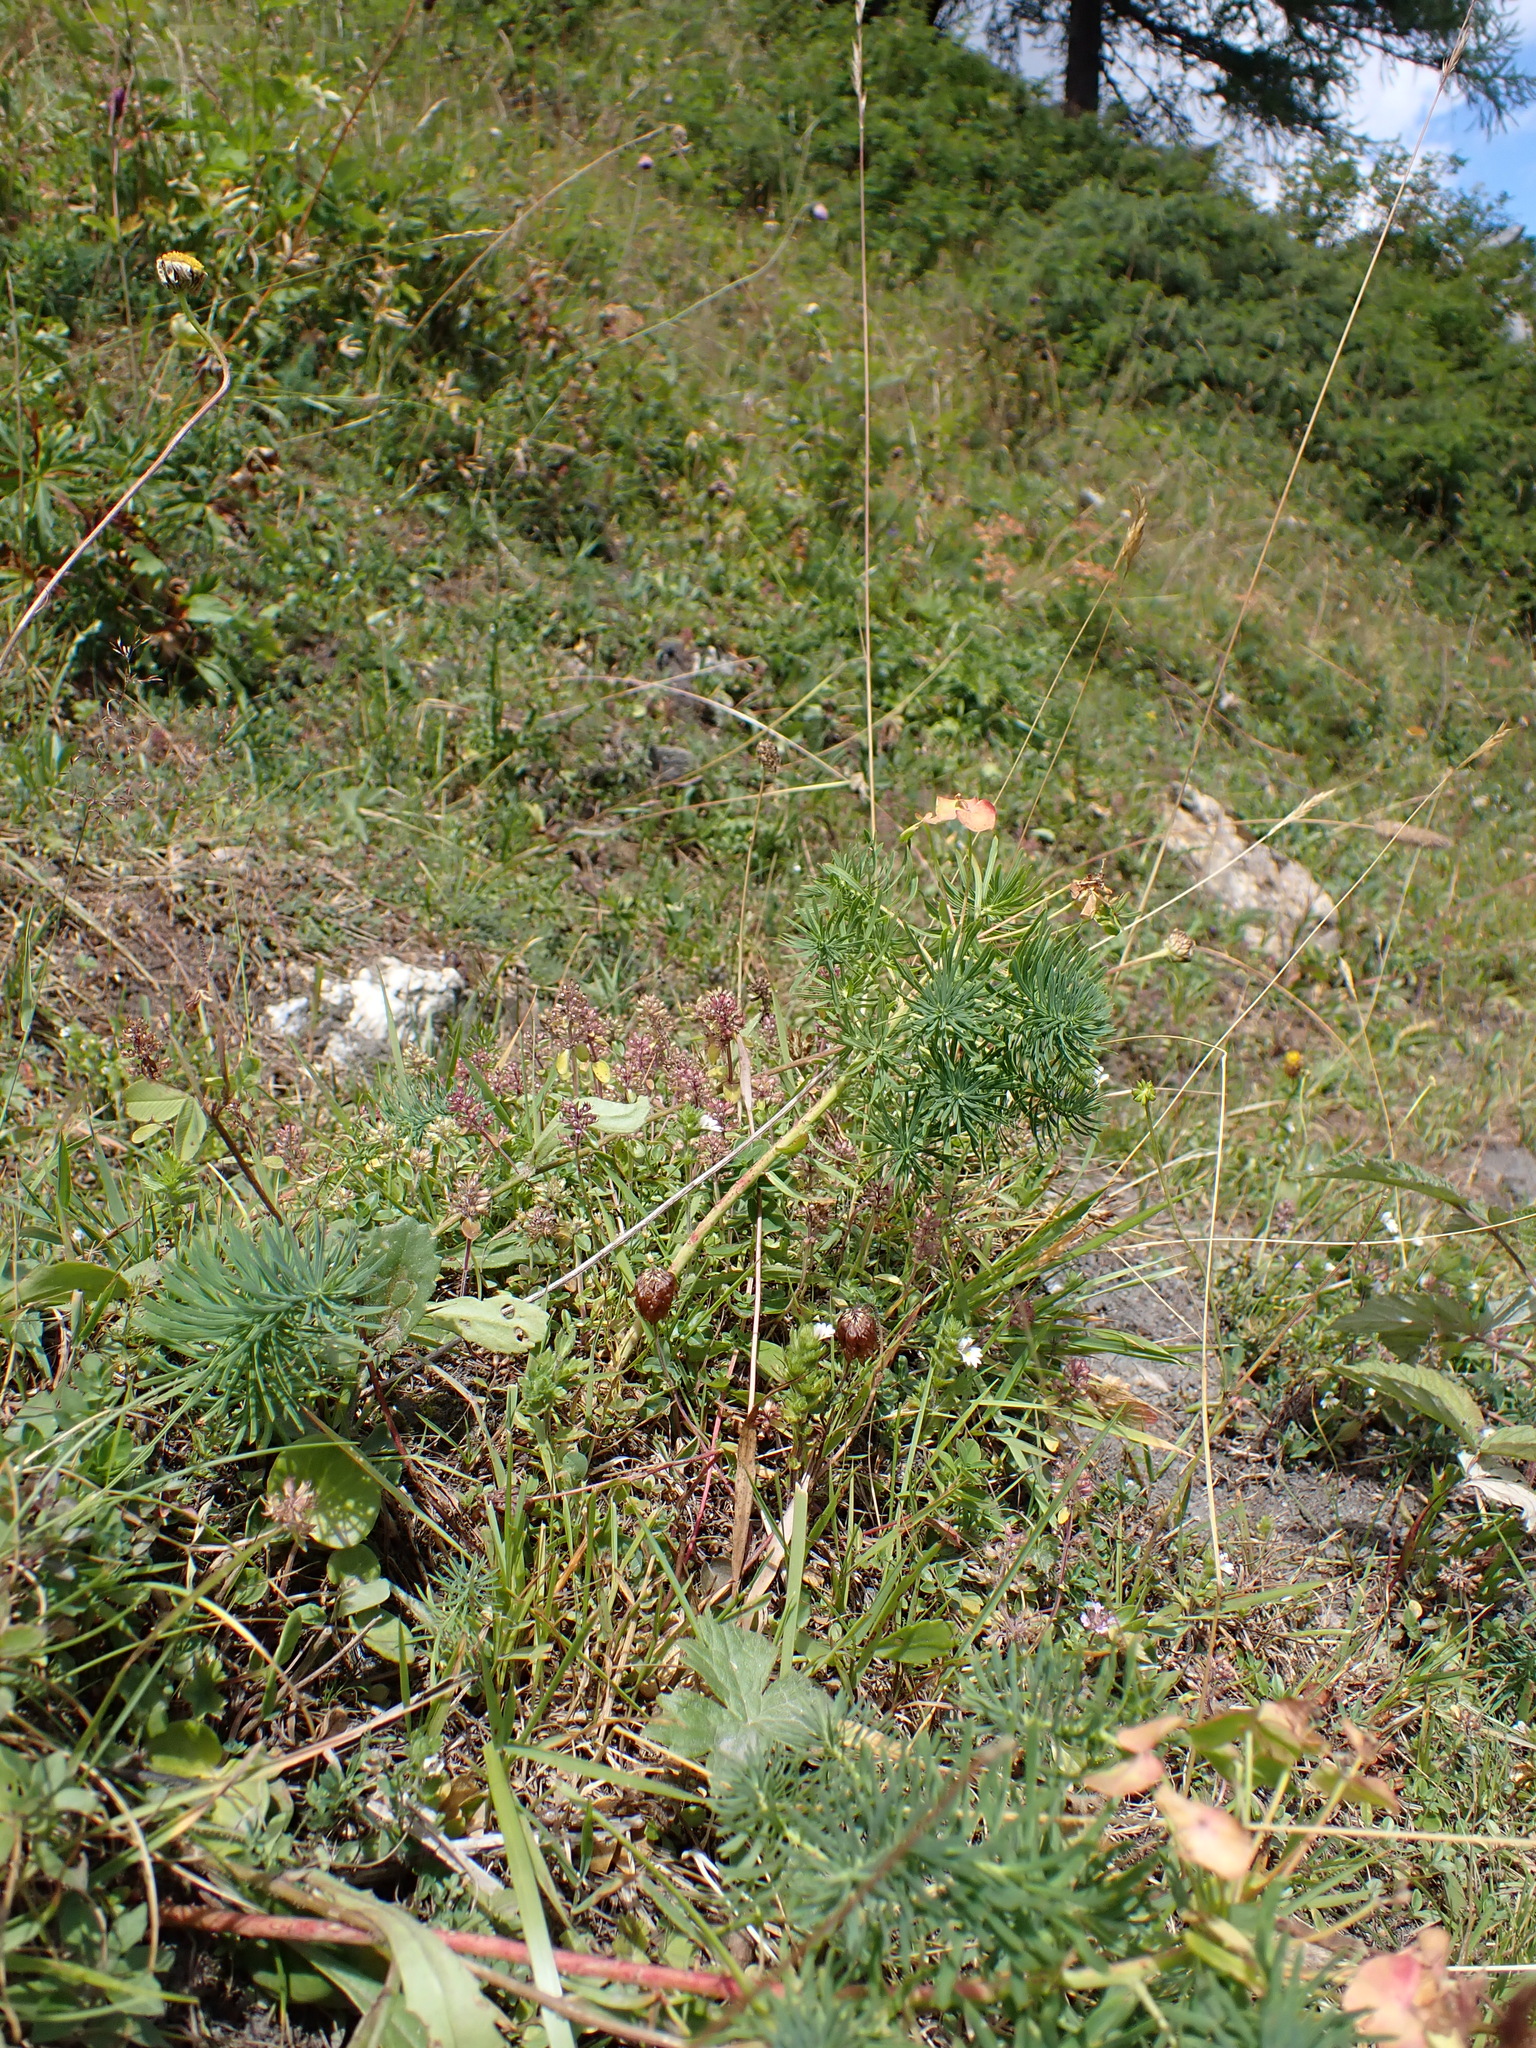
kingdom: Plantae
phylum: Tracheophyta
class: Magnoliopsida
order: Malpighiales
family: Euphorbiaceae
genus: Euphorbia
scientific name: Euphorbia cyparissias
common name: Cypress spurge
